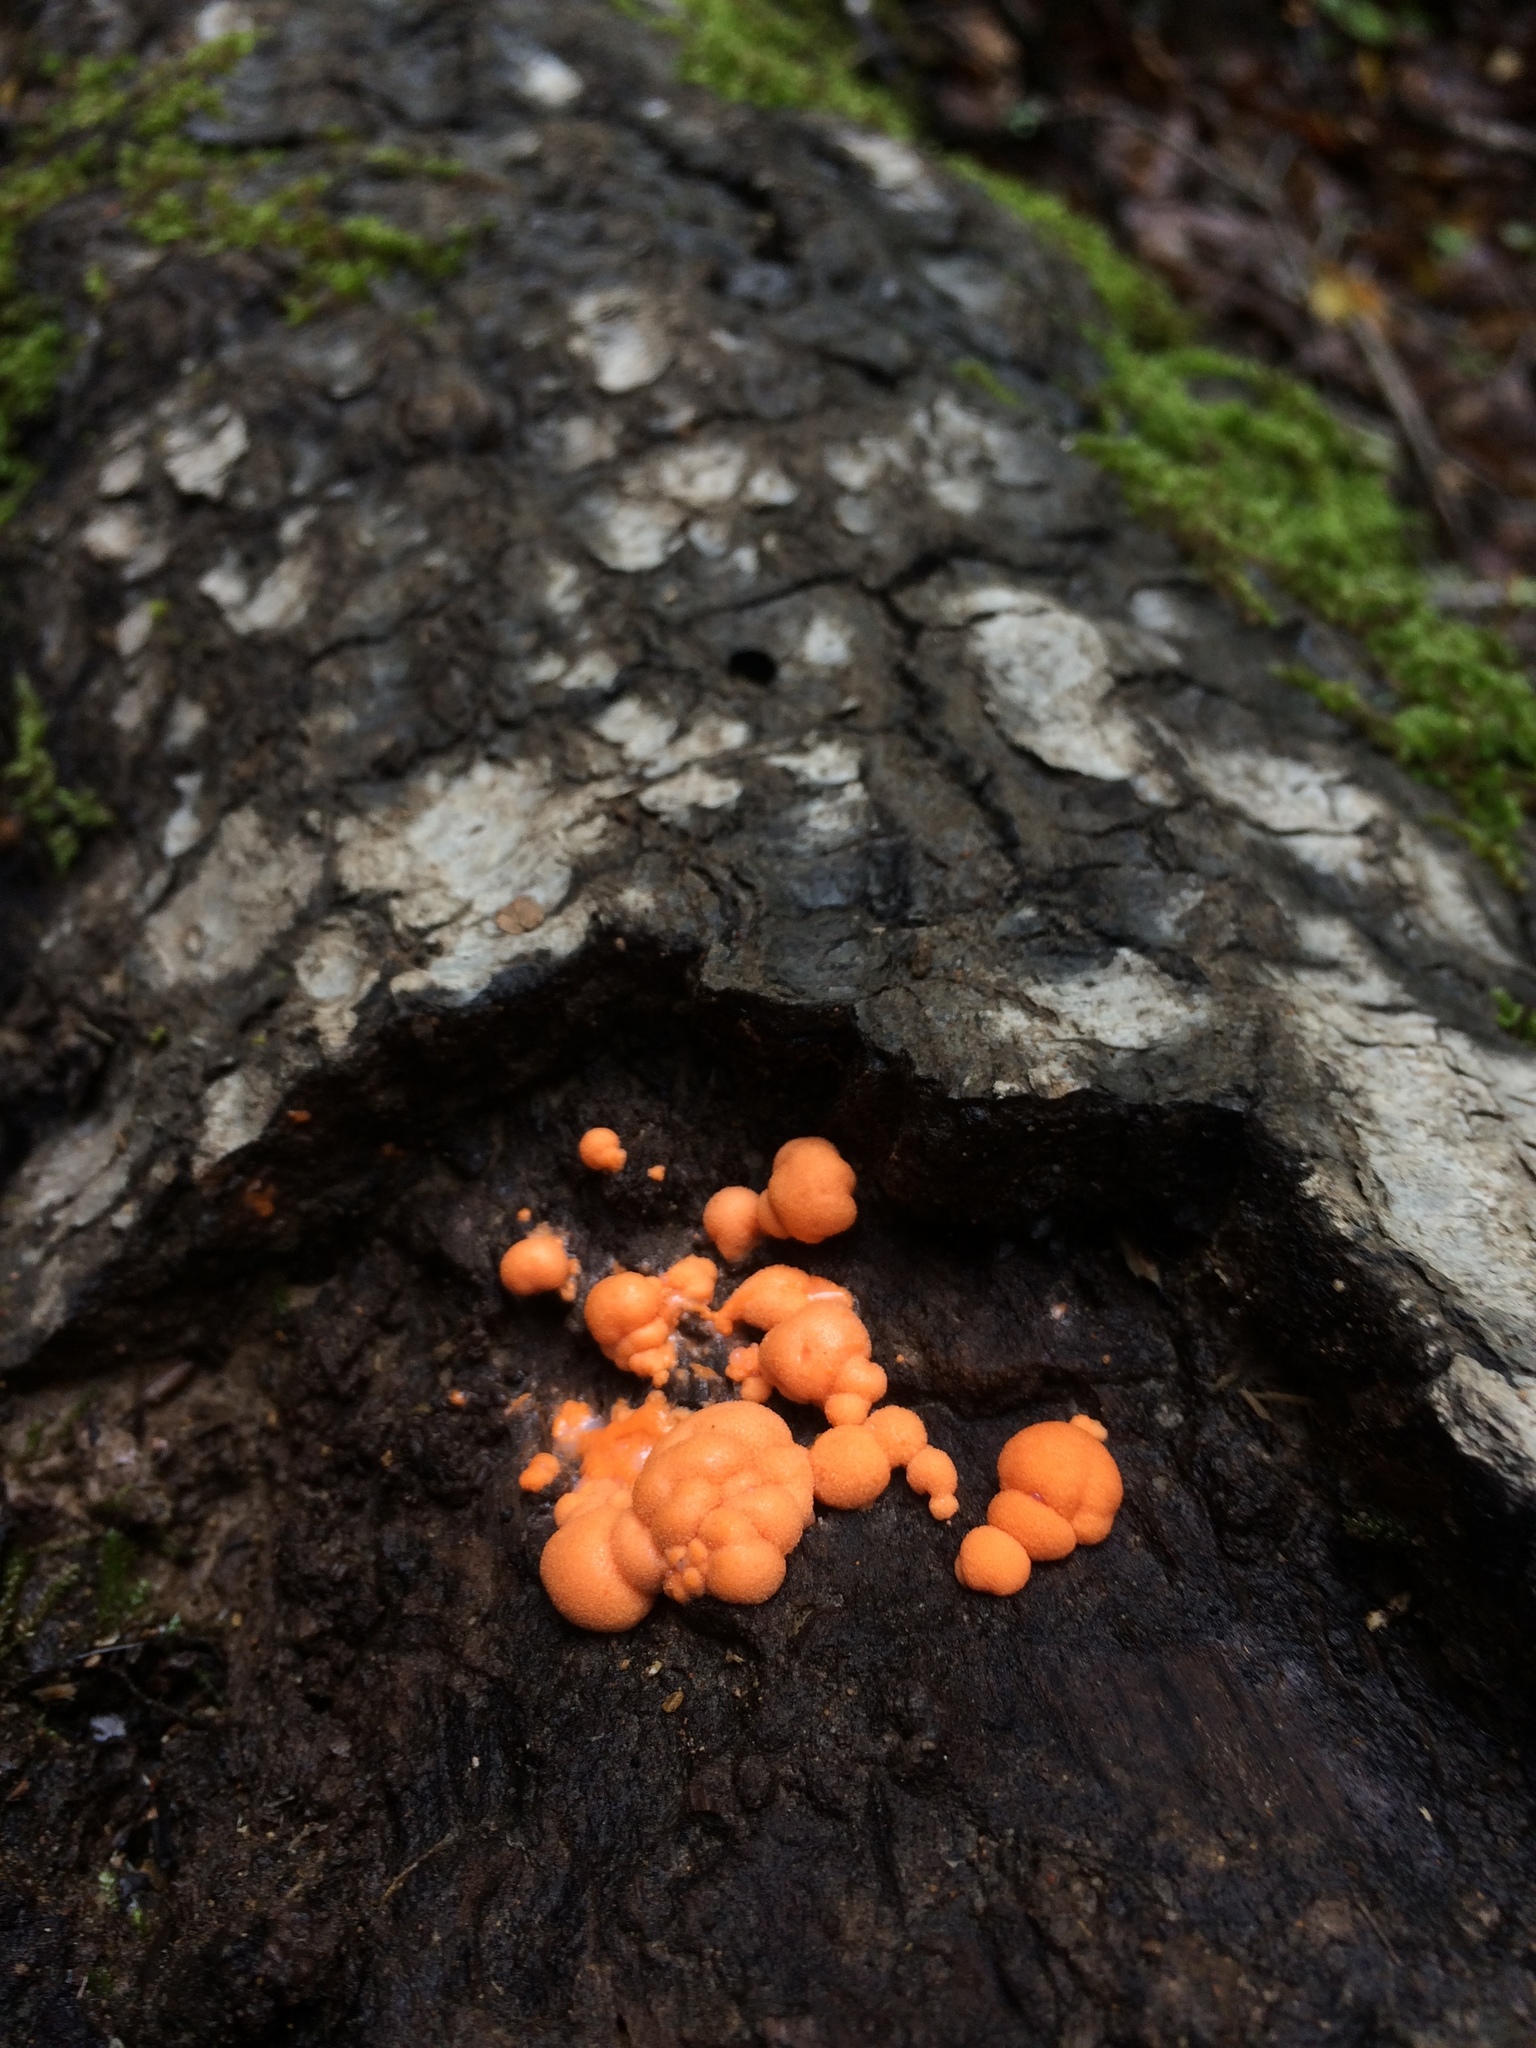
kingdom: Protozoa
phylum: Mycetozoa
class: Myxomycetes
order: Cribrariales
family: Tubiferaceae
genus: Lycogala
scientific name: Lycogala epidendrum
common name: Wolf's milk
